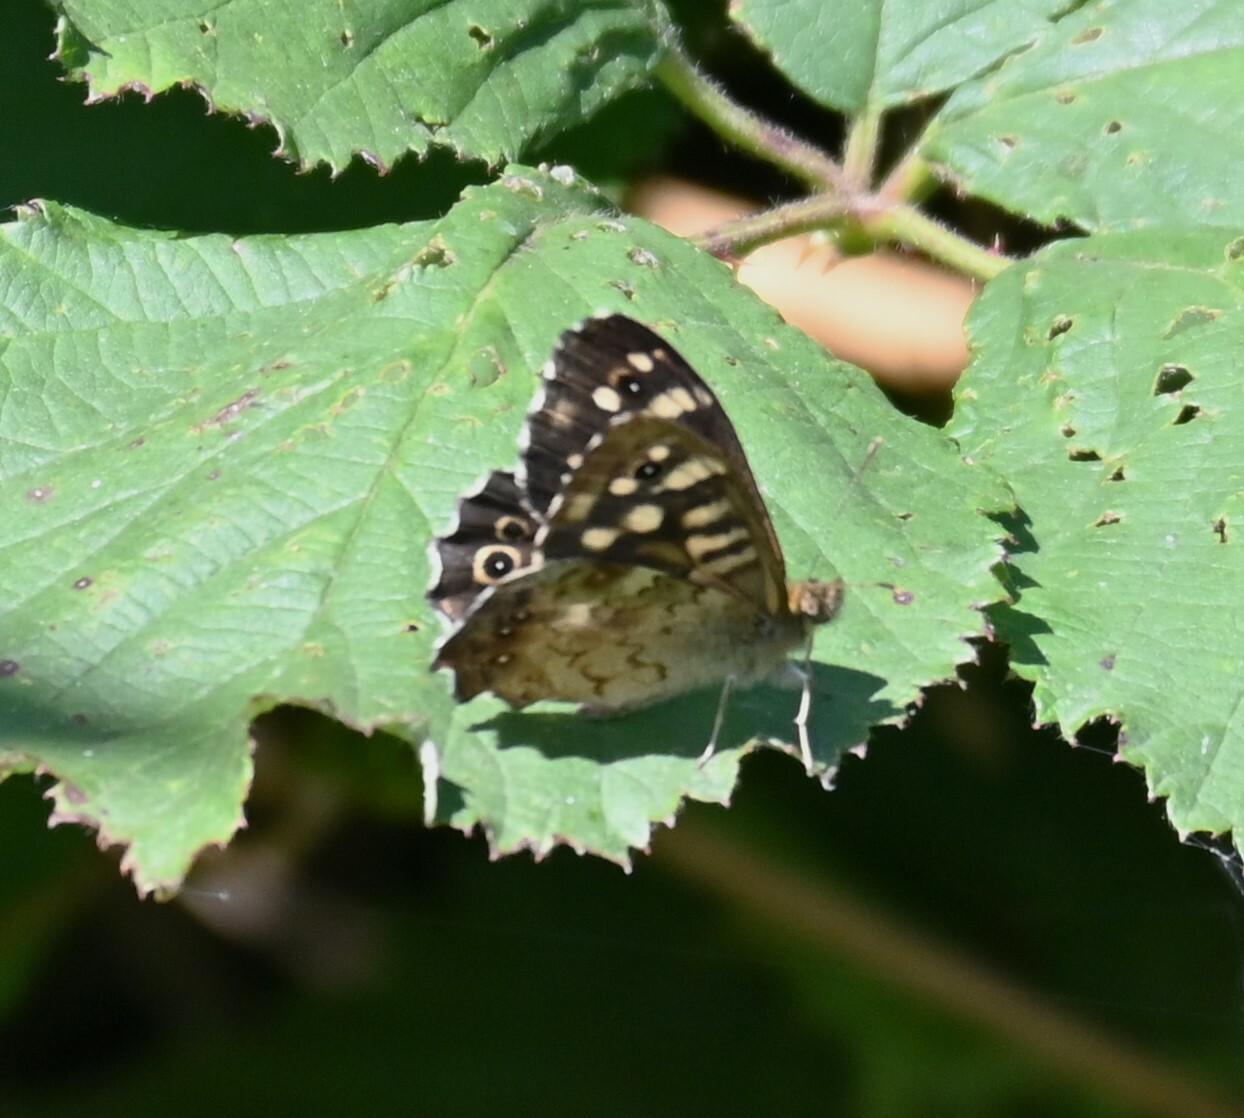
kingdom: Animalia
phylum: Arthropoda
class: Insecta
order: Lepidoptera
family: Nymphalidae
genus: Pararge
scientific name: Pararge aegeria
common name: Speckled wood
